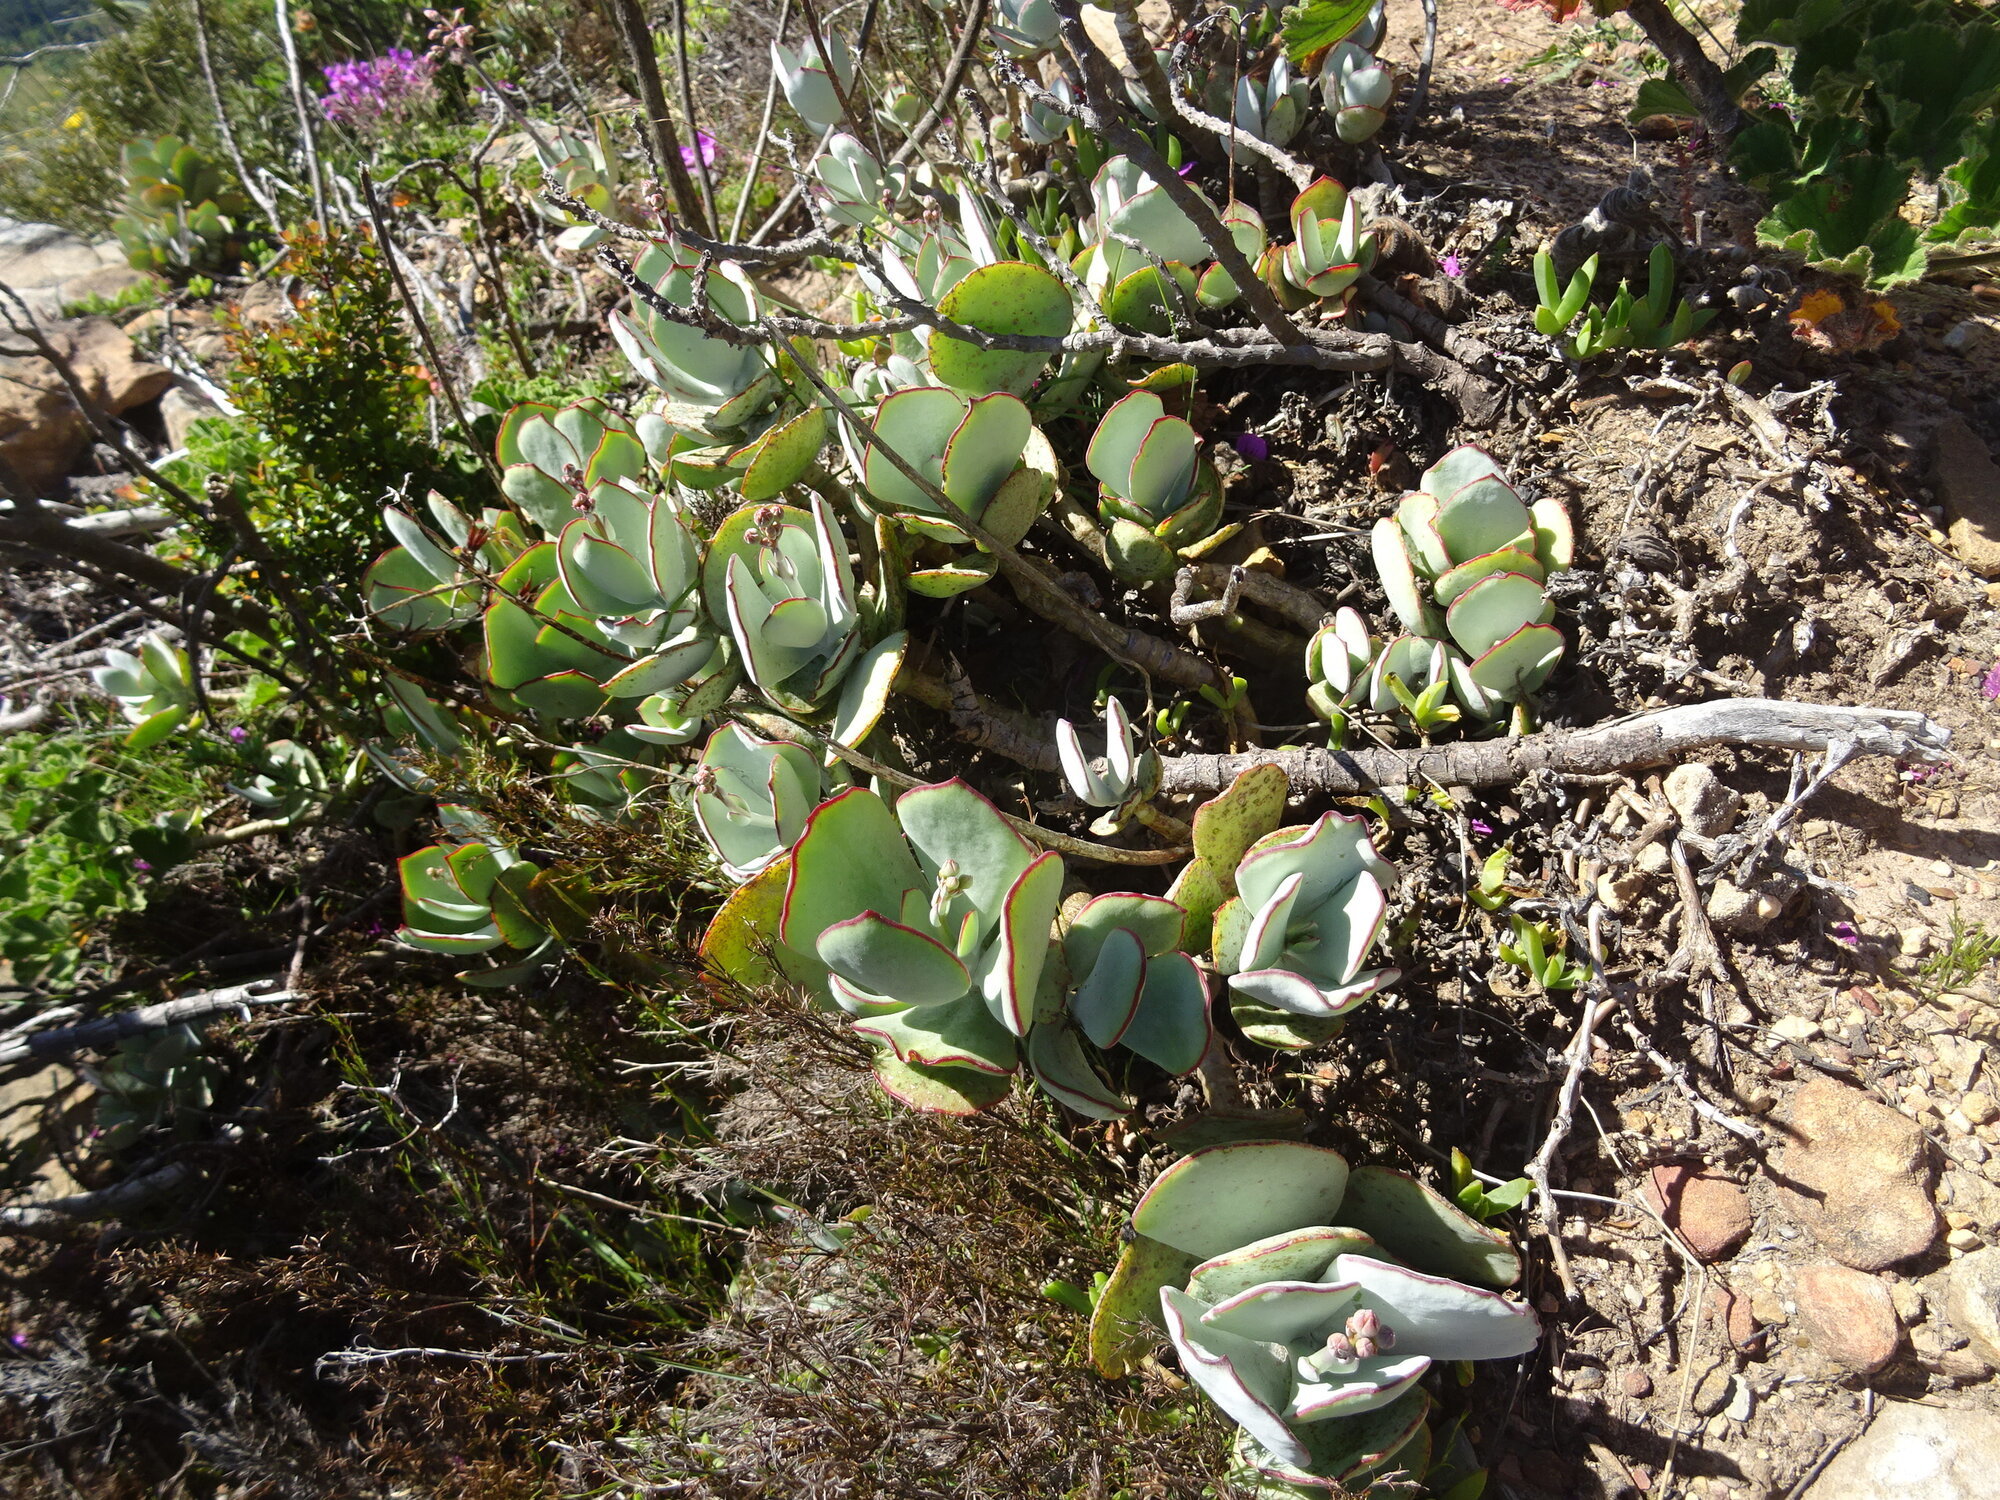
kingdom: Plantae
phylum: Tracheophyta
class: Magnoliopsida
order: Saxifragales
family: Crassulaceae
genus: Cotyledon
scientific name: Cotyledon orbiculata
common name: Pig's ear
